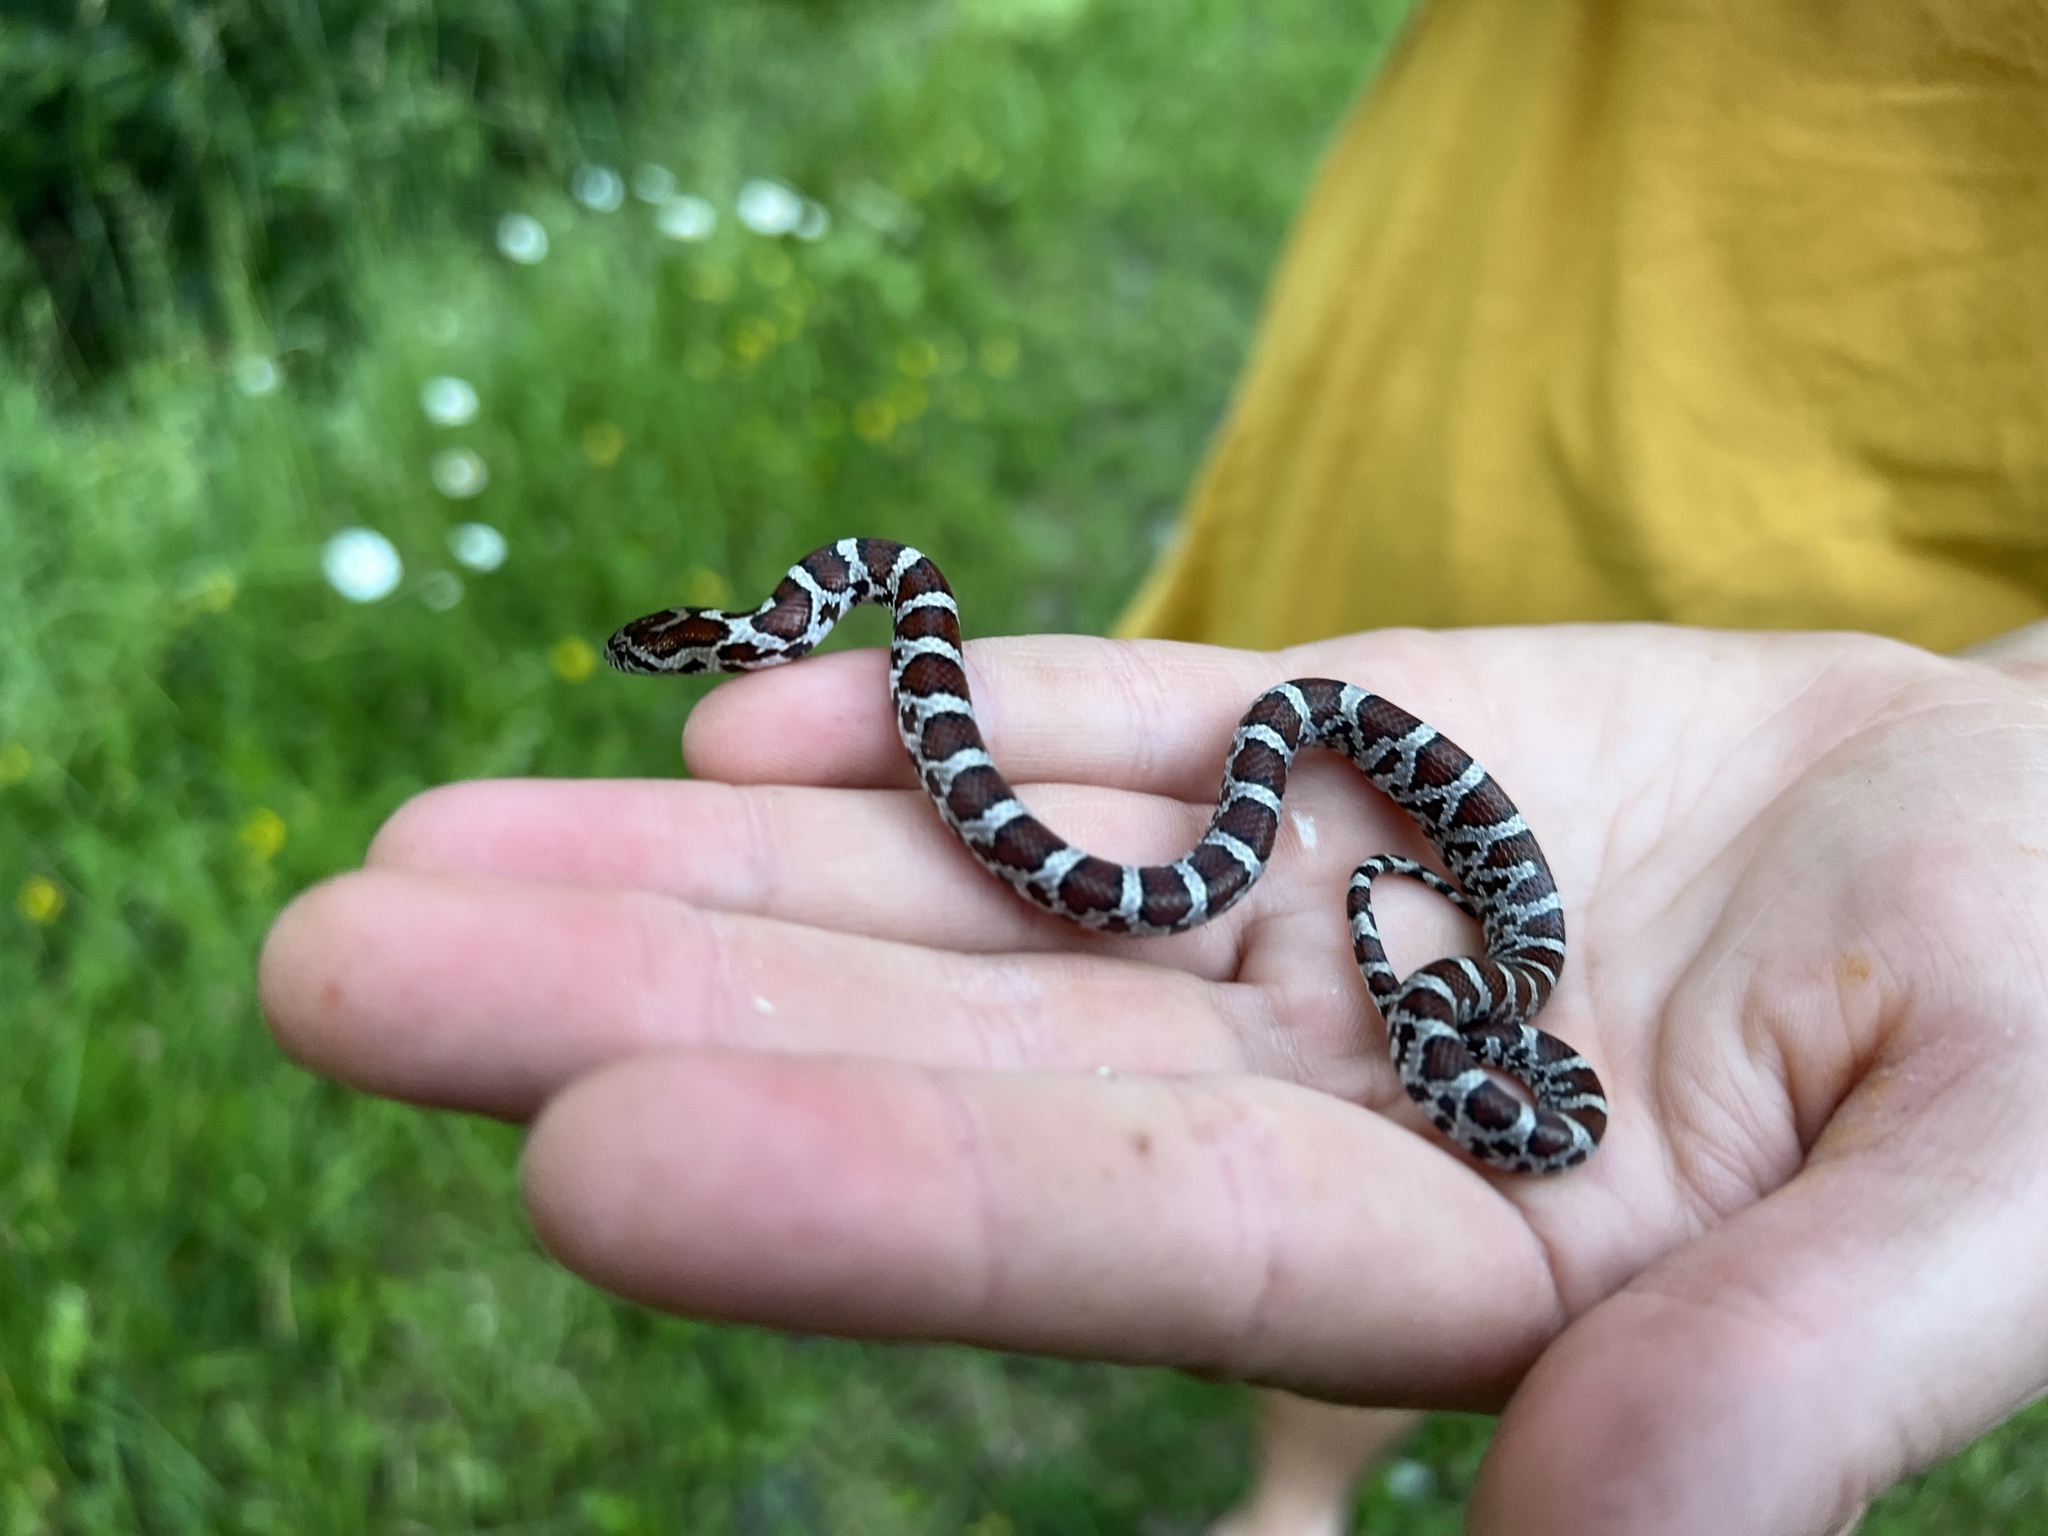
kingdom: Animalia
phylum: Chordata
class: Squamata
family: Colubridae
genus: Lampropeltis
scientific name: Lampropeltis triangulum
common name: Eastern milksnake
